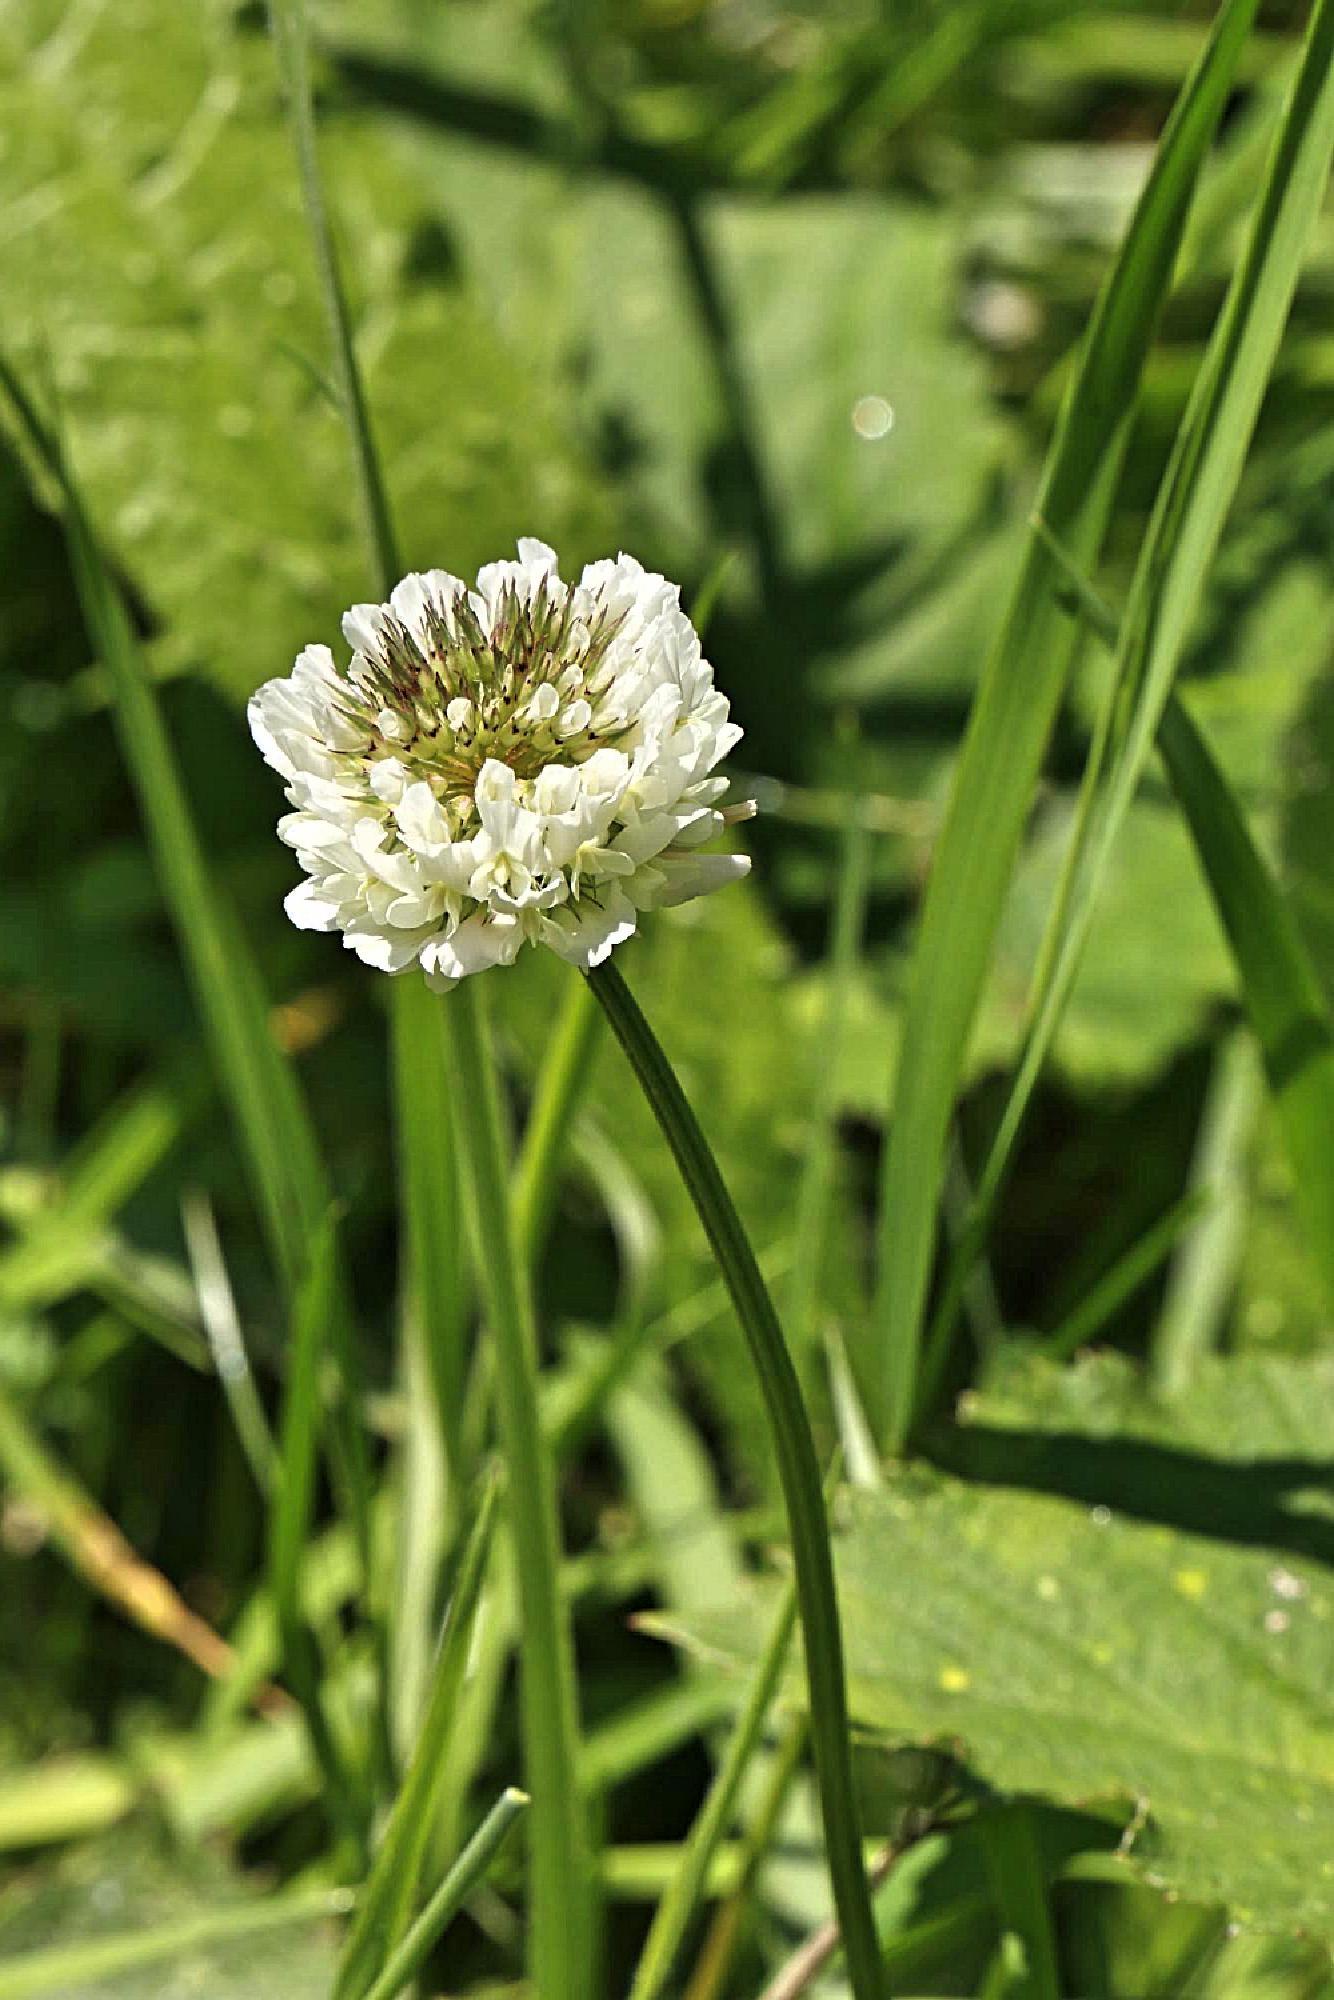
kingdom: Plantae
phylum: Tracheophyta
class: Magnoliopsida
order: Fabales
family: Fabaceae
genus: Trifolium
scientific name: Trifolium repens
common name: White clover
